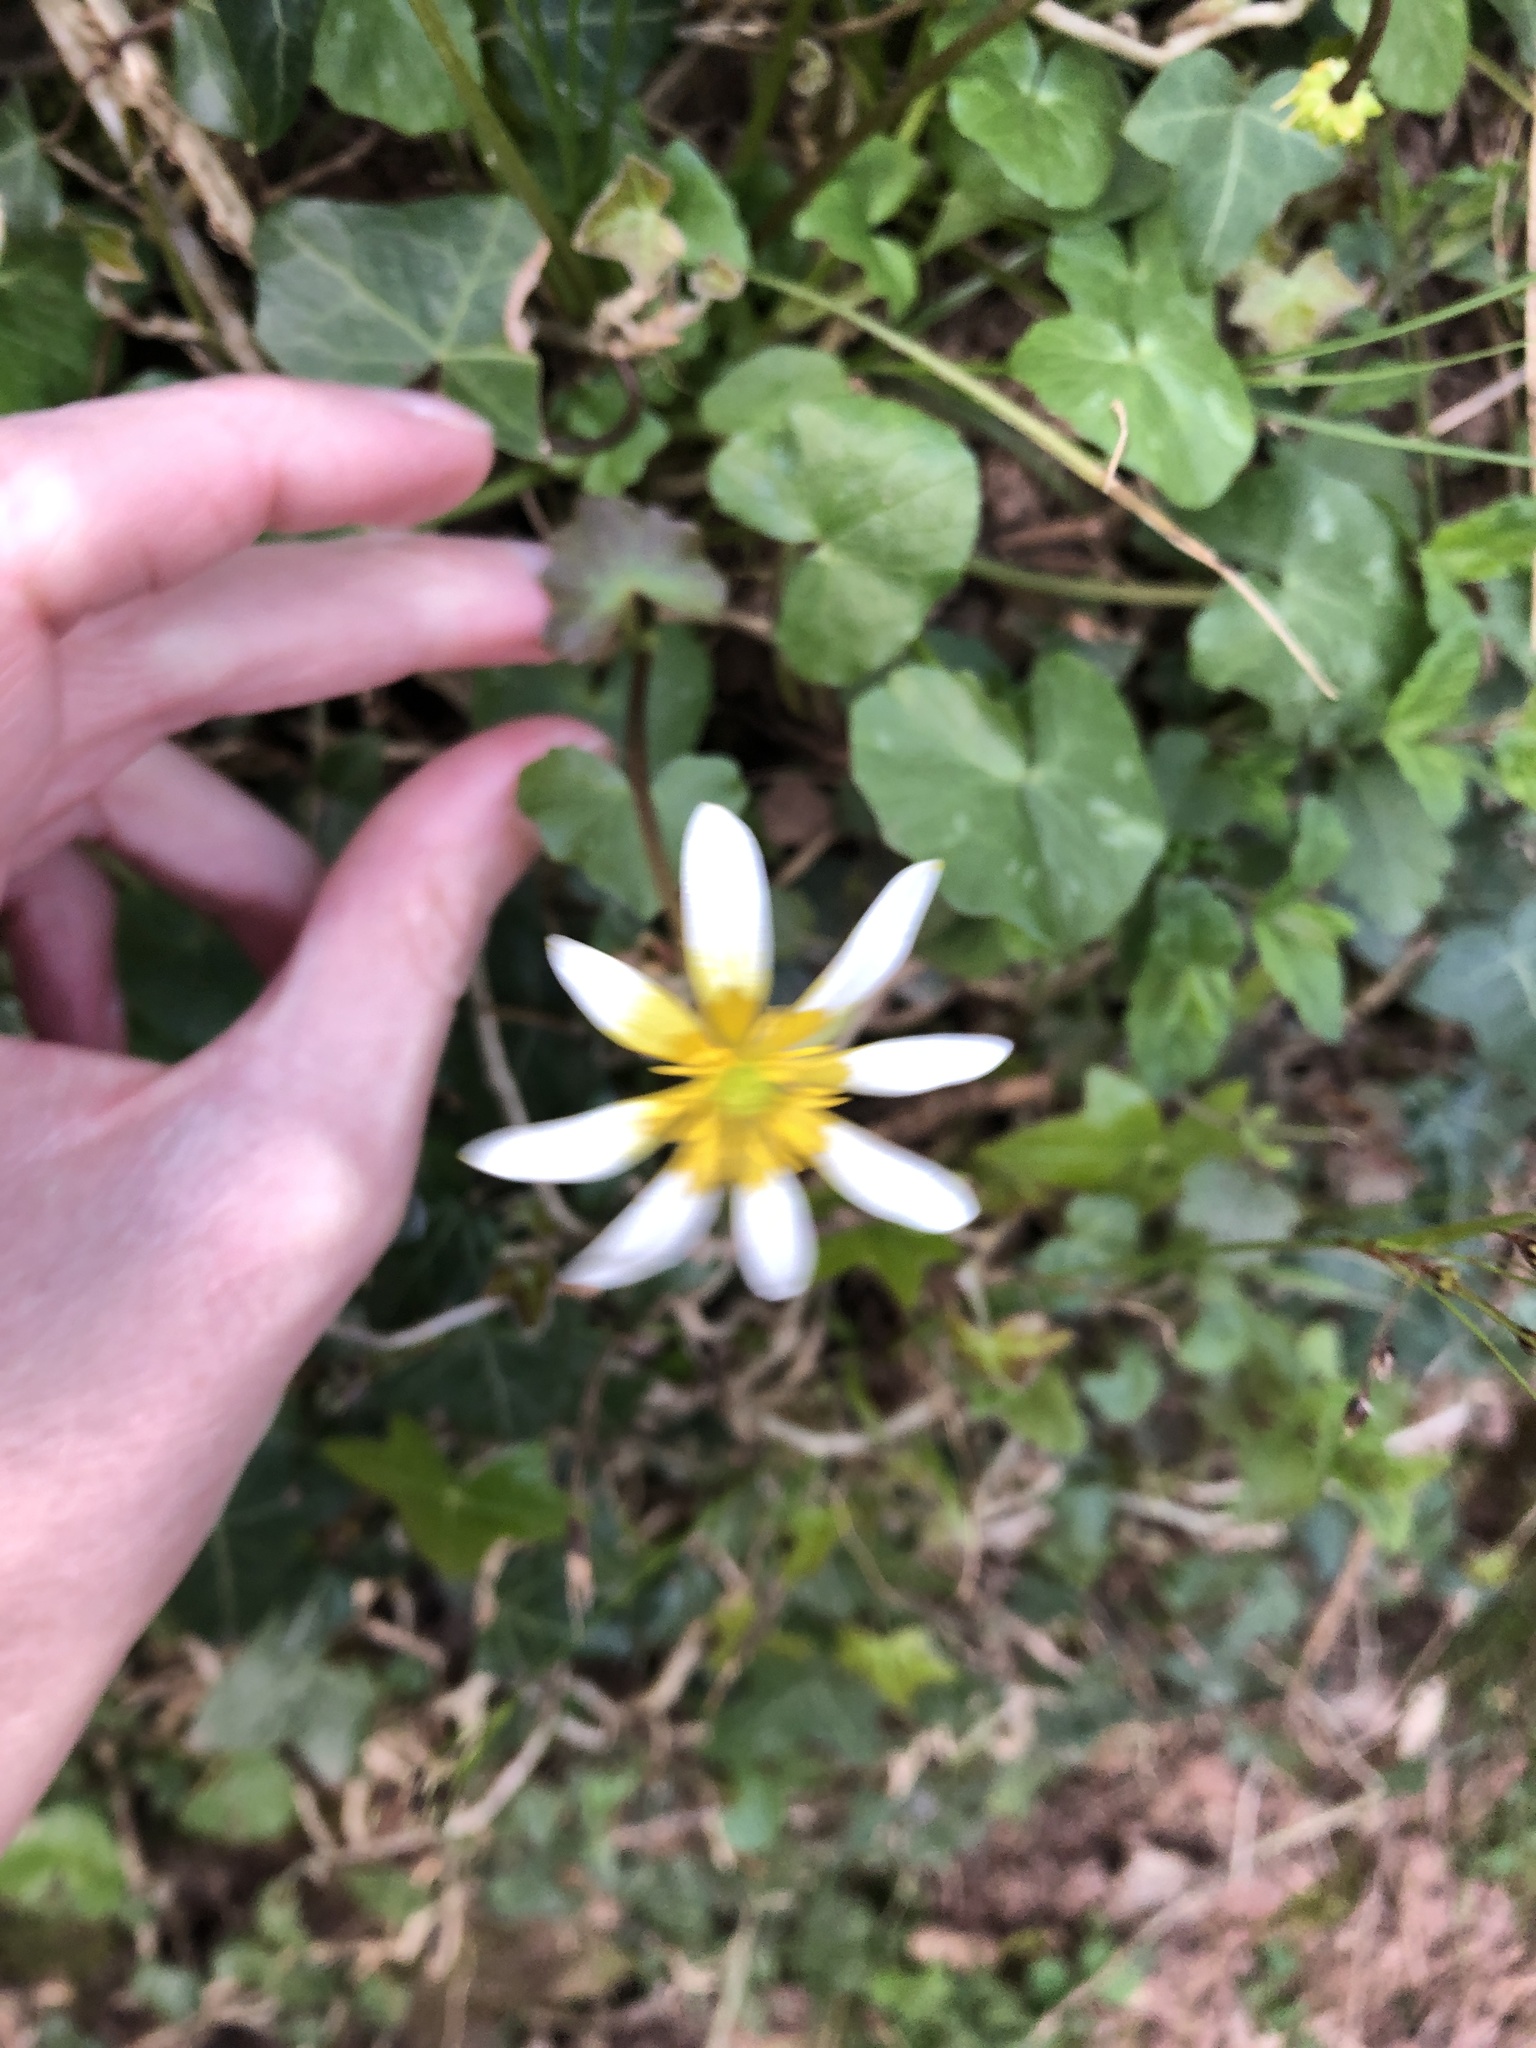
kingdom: Plantae
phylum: Tracheophyta
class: Magnoliopsida
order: Ranunculales
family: Ranunculaceae
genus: Ficaria
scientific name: Ficaria verna
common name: Lesser celandine
